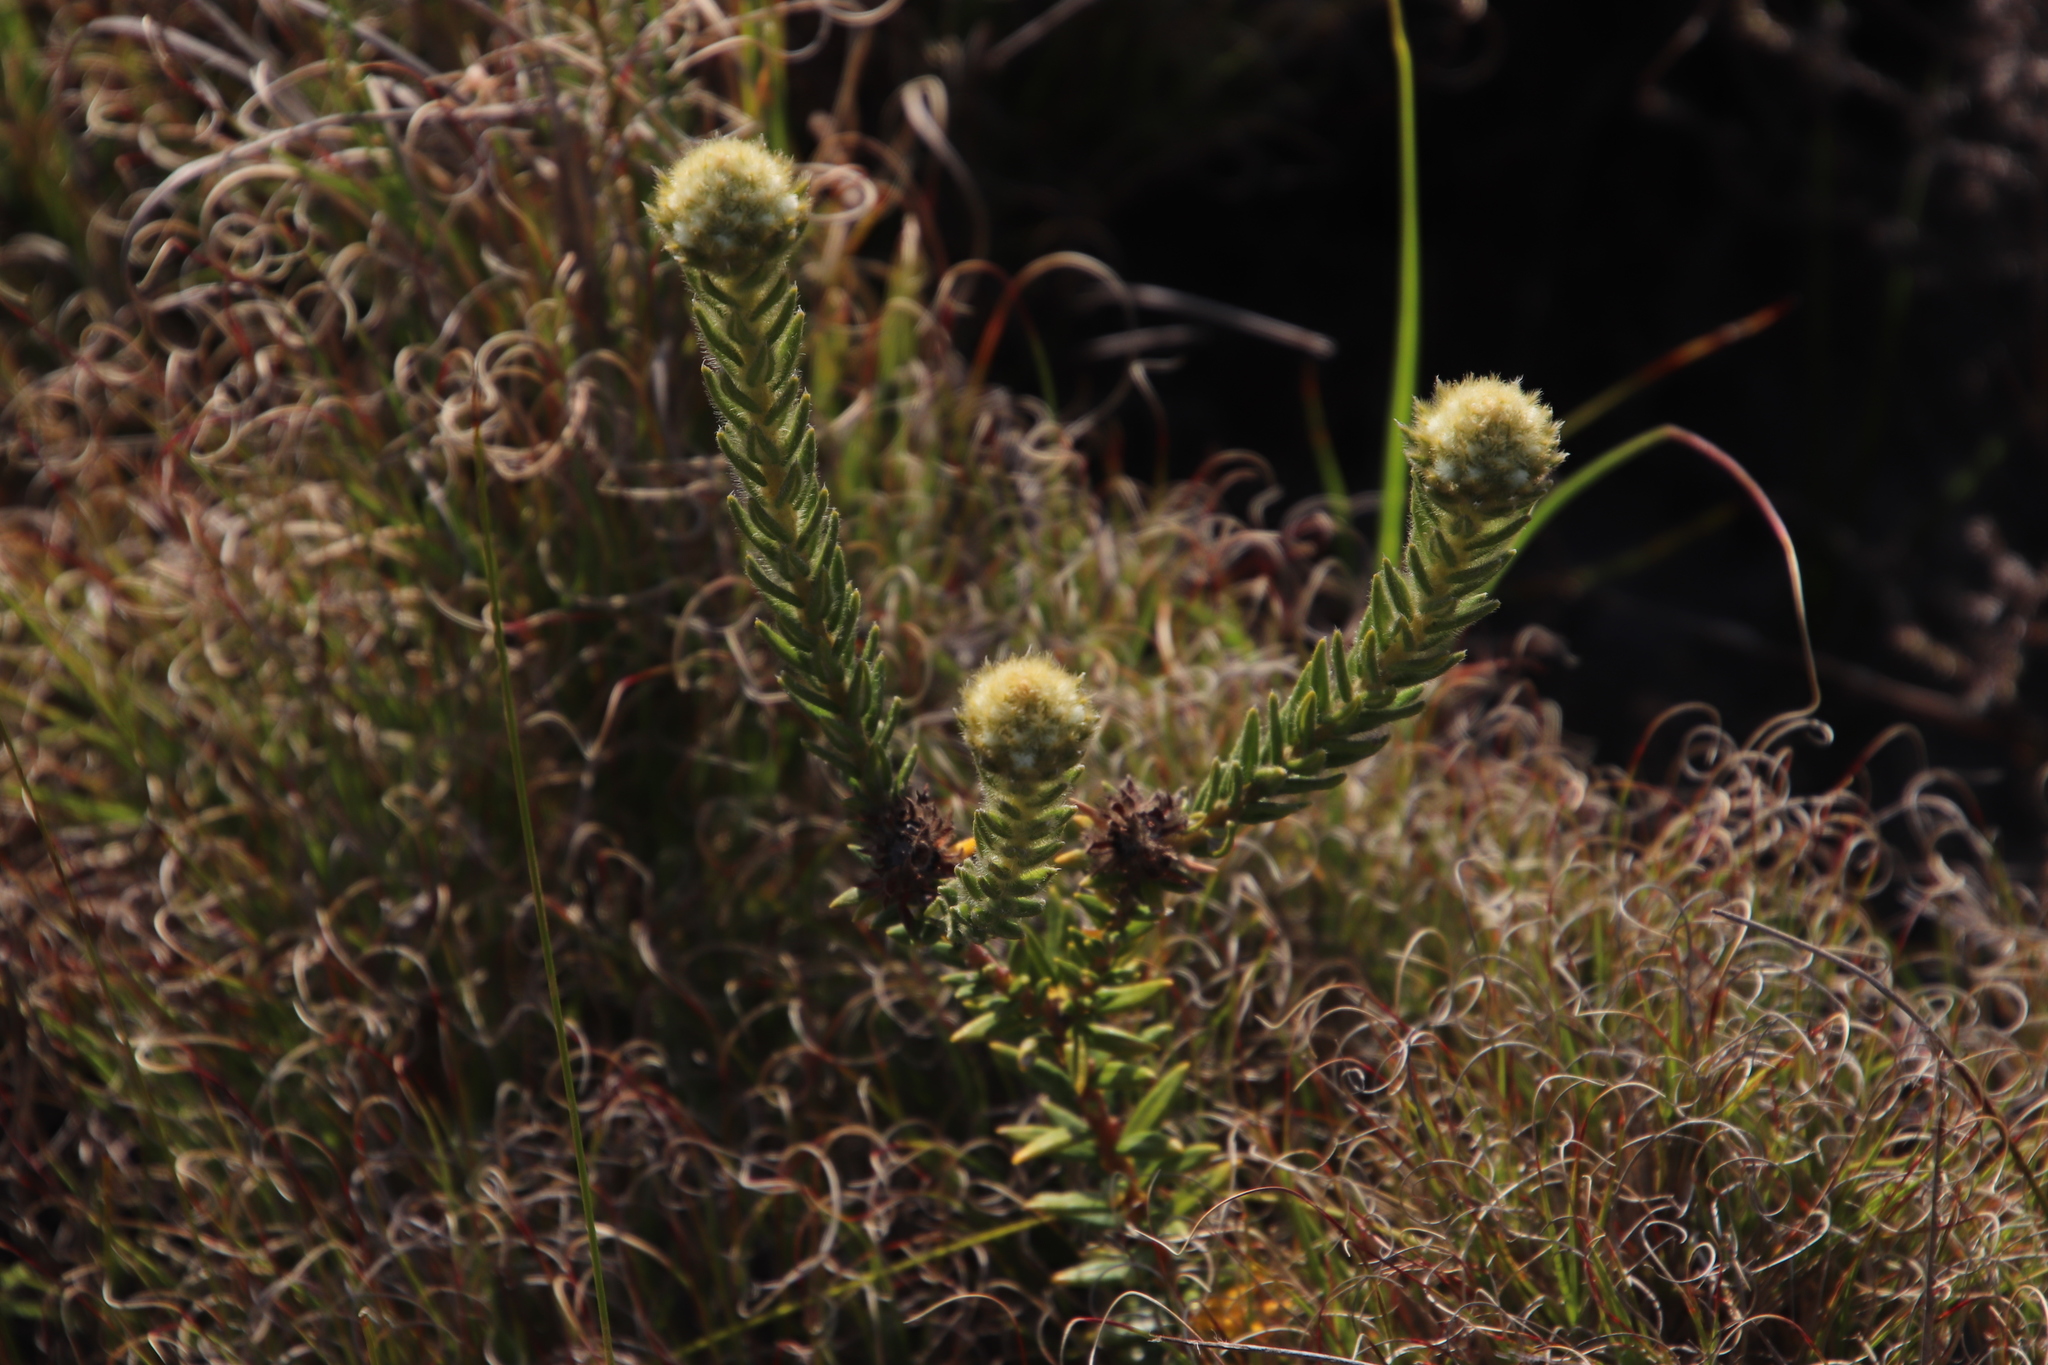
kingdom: Plantae
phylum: Tracheophyta
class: Magnoliopsida
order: Rosales
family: Rhamnaceae
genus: Phylica
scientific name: Phylica dioica
